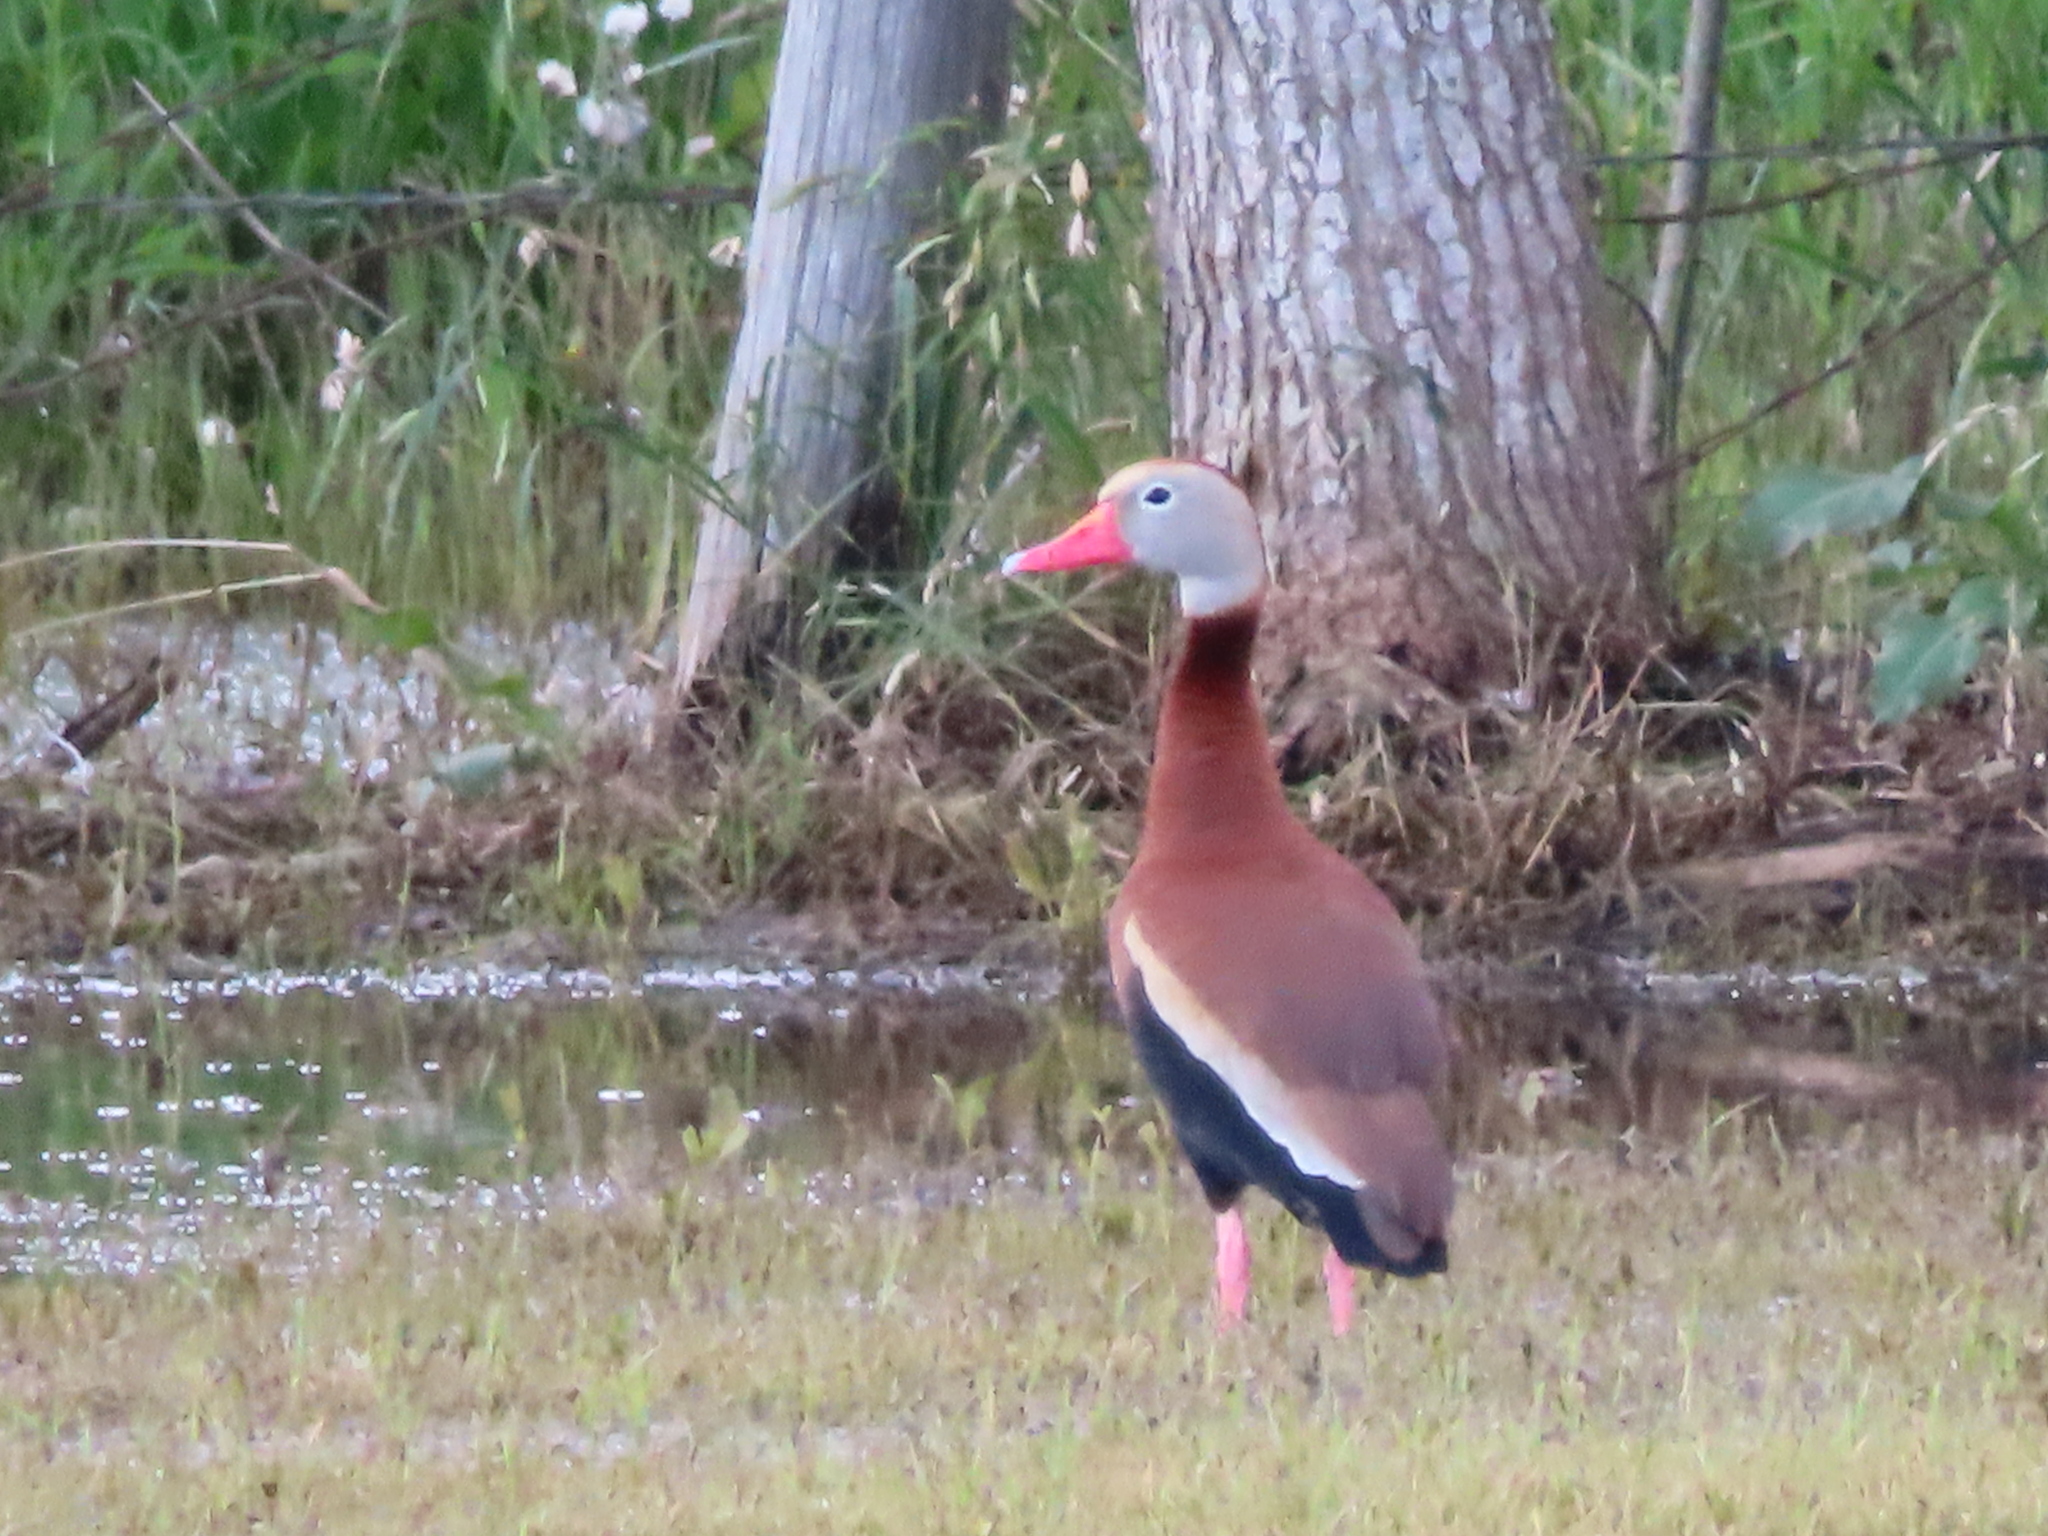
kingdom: Animalia
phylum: Chordata
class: Aves
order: Anseriformes
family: Anatidae
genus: Dendrocygna
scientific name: Dendrocygna autumnalis
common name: Black-bellied whistling duck
